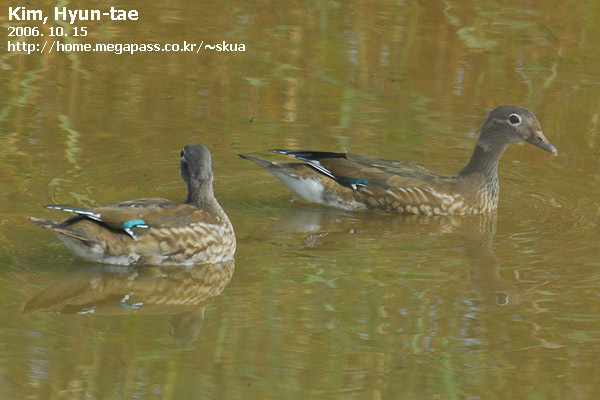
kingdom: Animalia
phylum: Chordata
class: Aves
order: Anseriformes
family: Anatidae
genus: Aix
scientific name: Aix galericulata
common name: Mandarin duck
